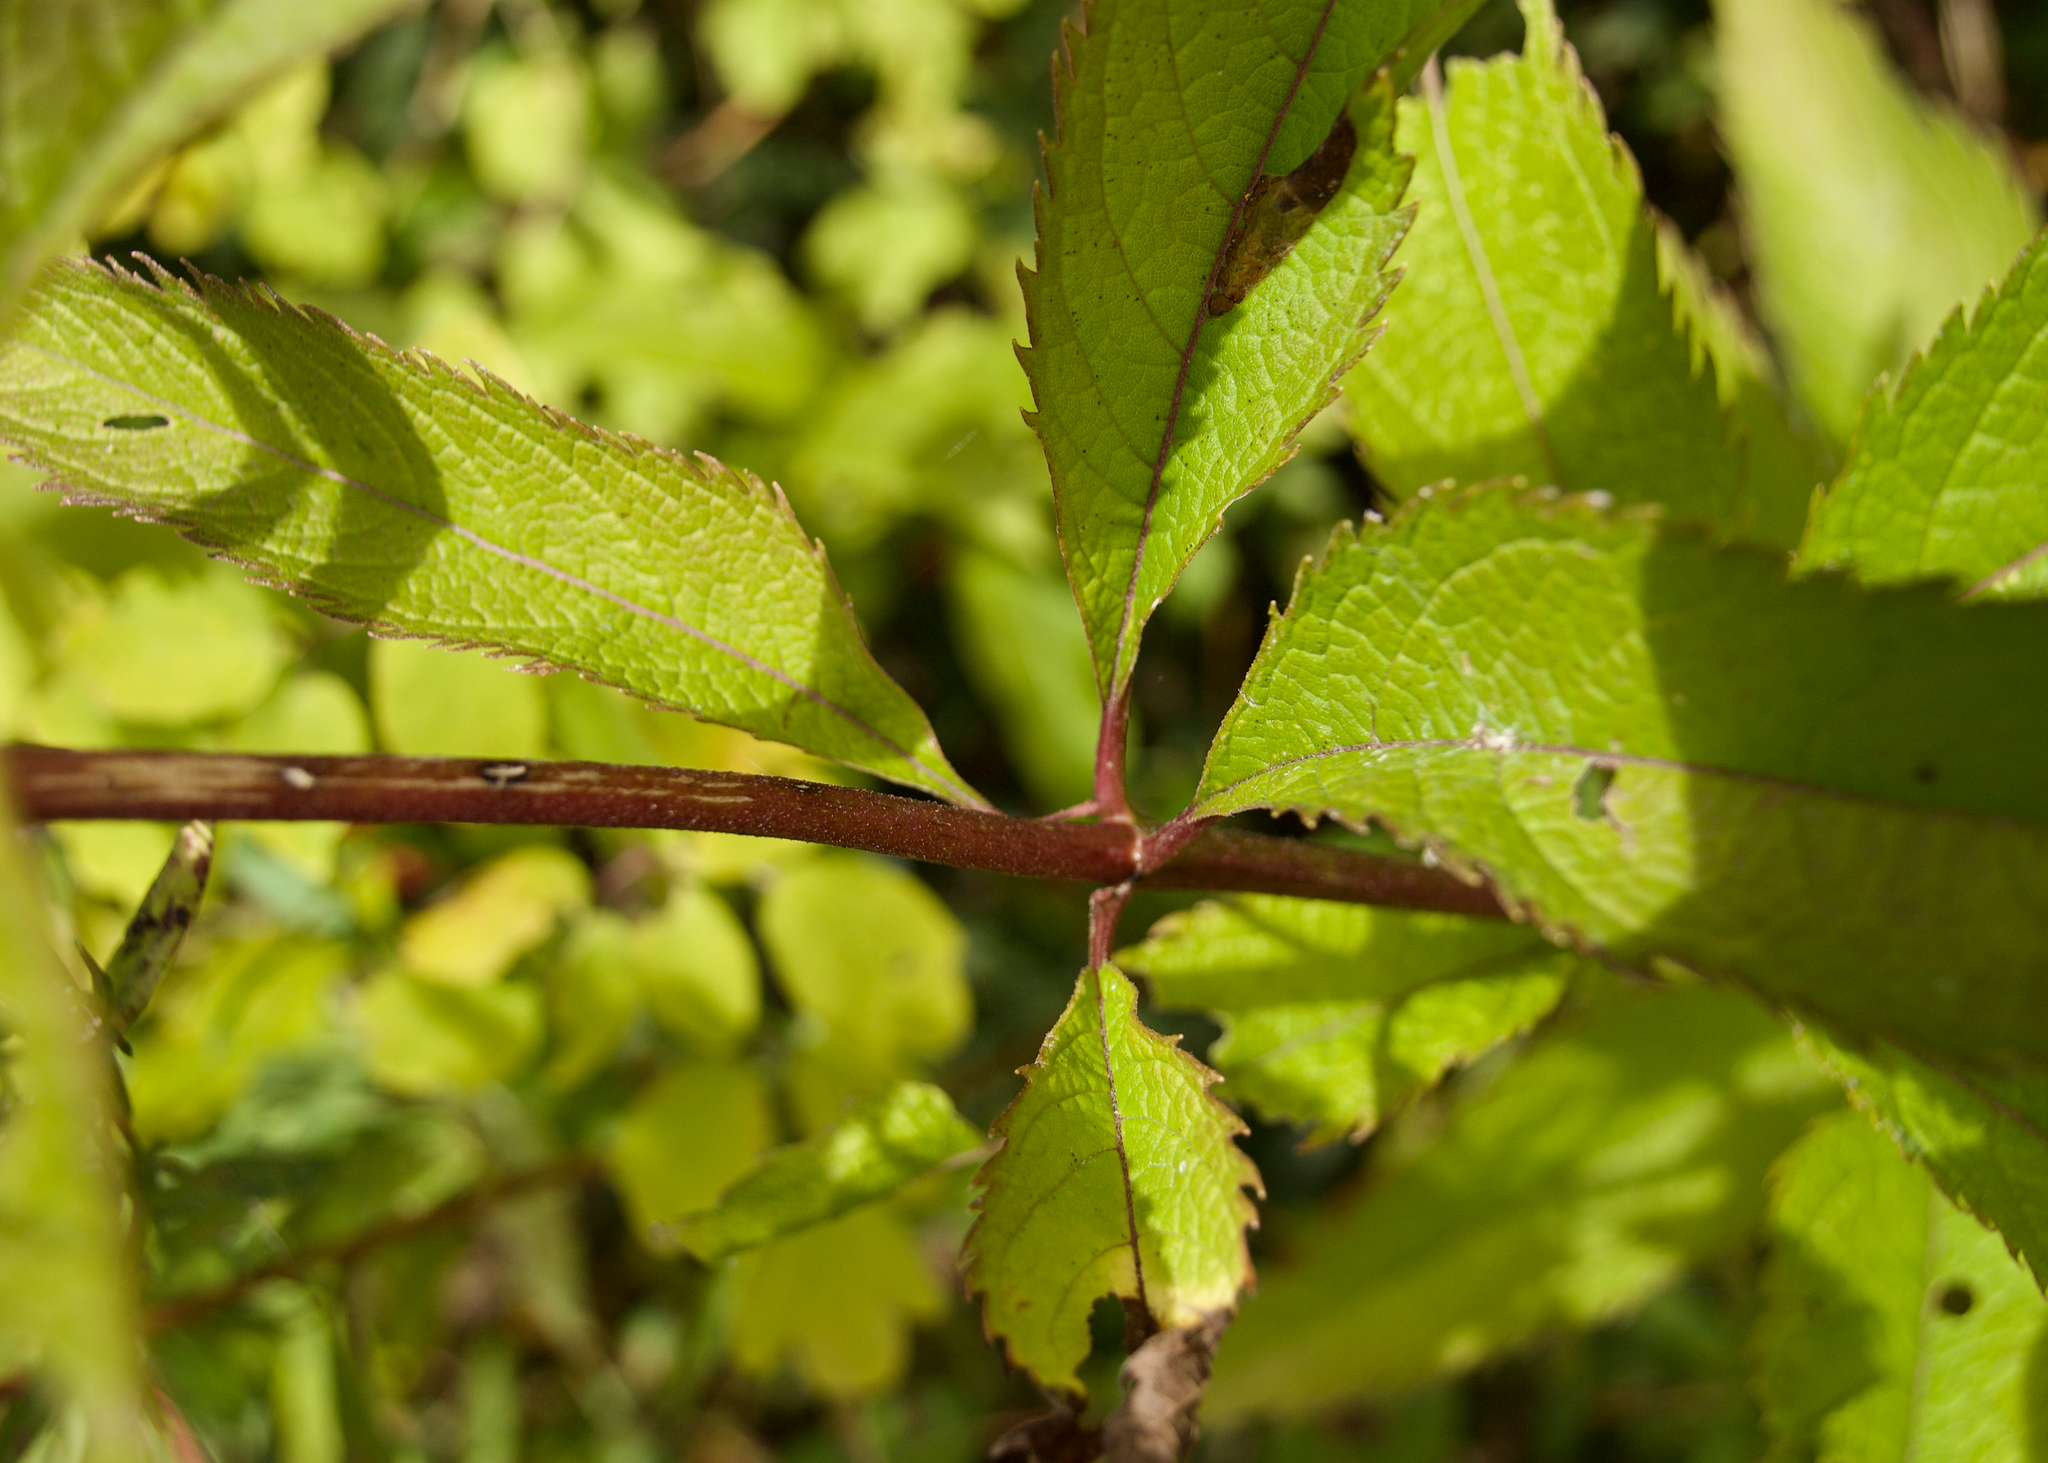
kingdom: Plantae
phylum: Tracheophyta
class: Magnoliopsida
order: Asterales
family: Asteraceae
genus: Eutrochium
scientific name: Eutrochium maculatum
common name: Spotted joe pye weed
